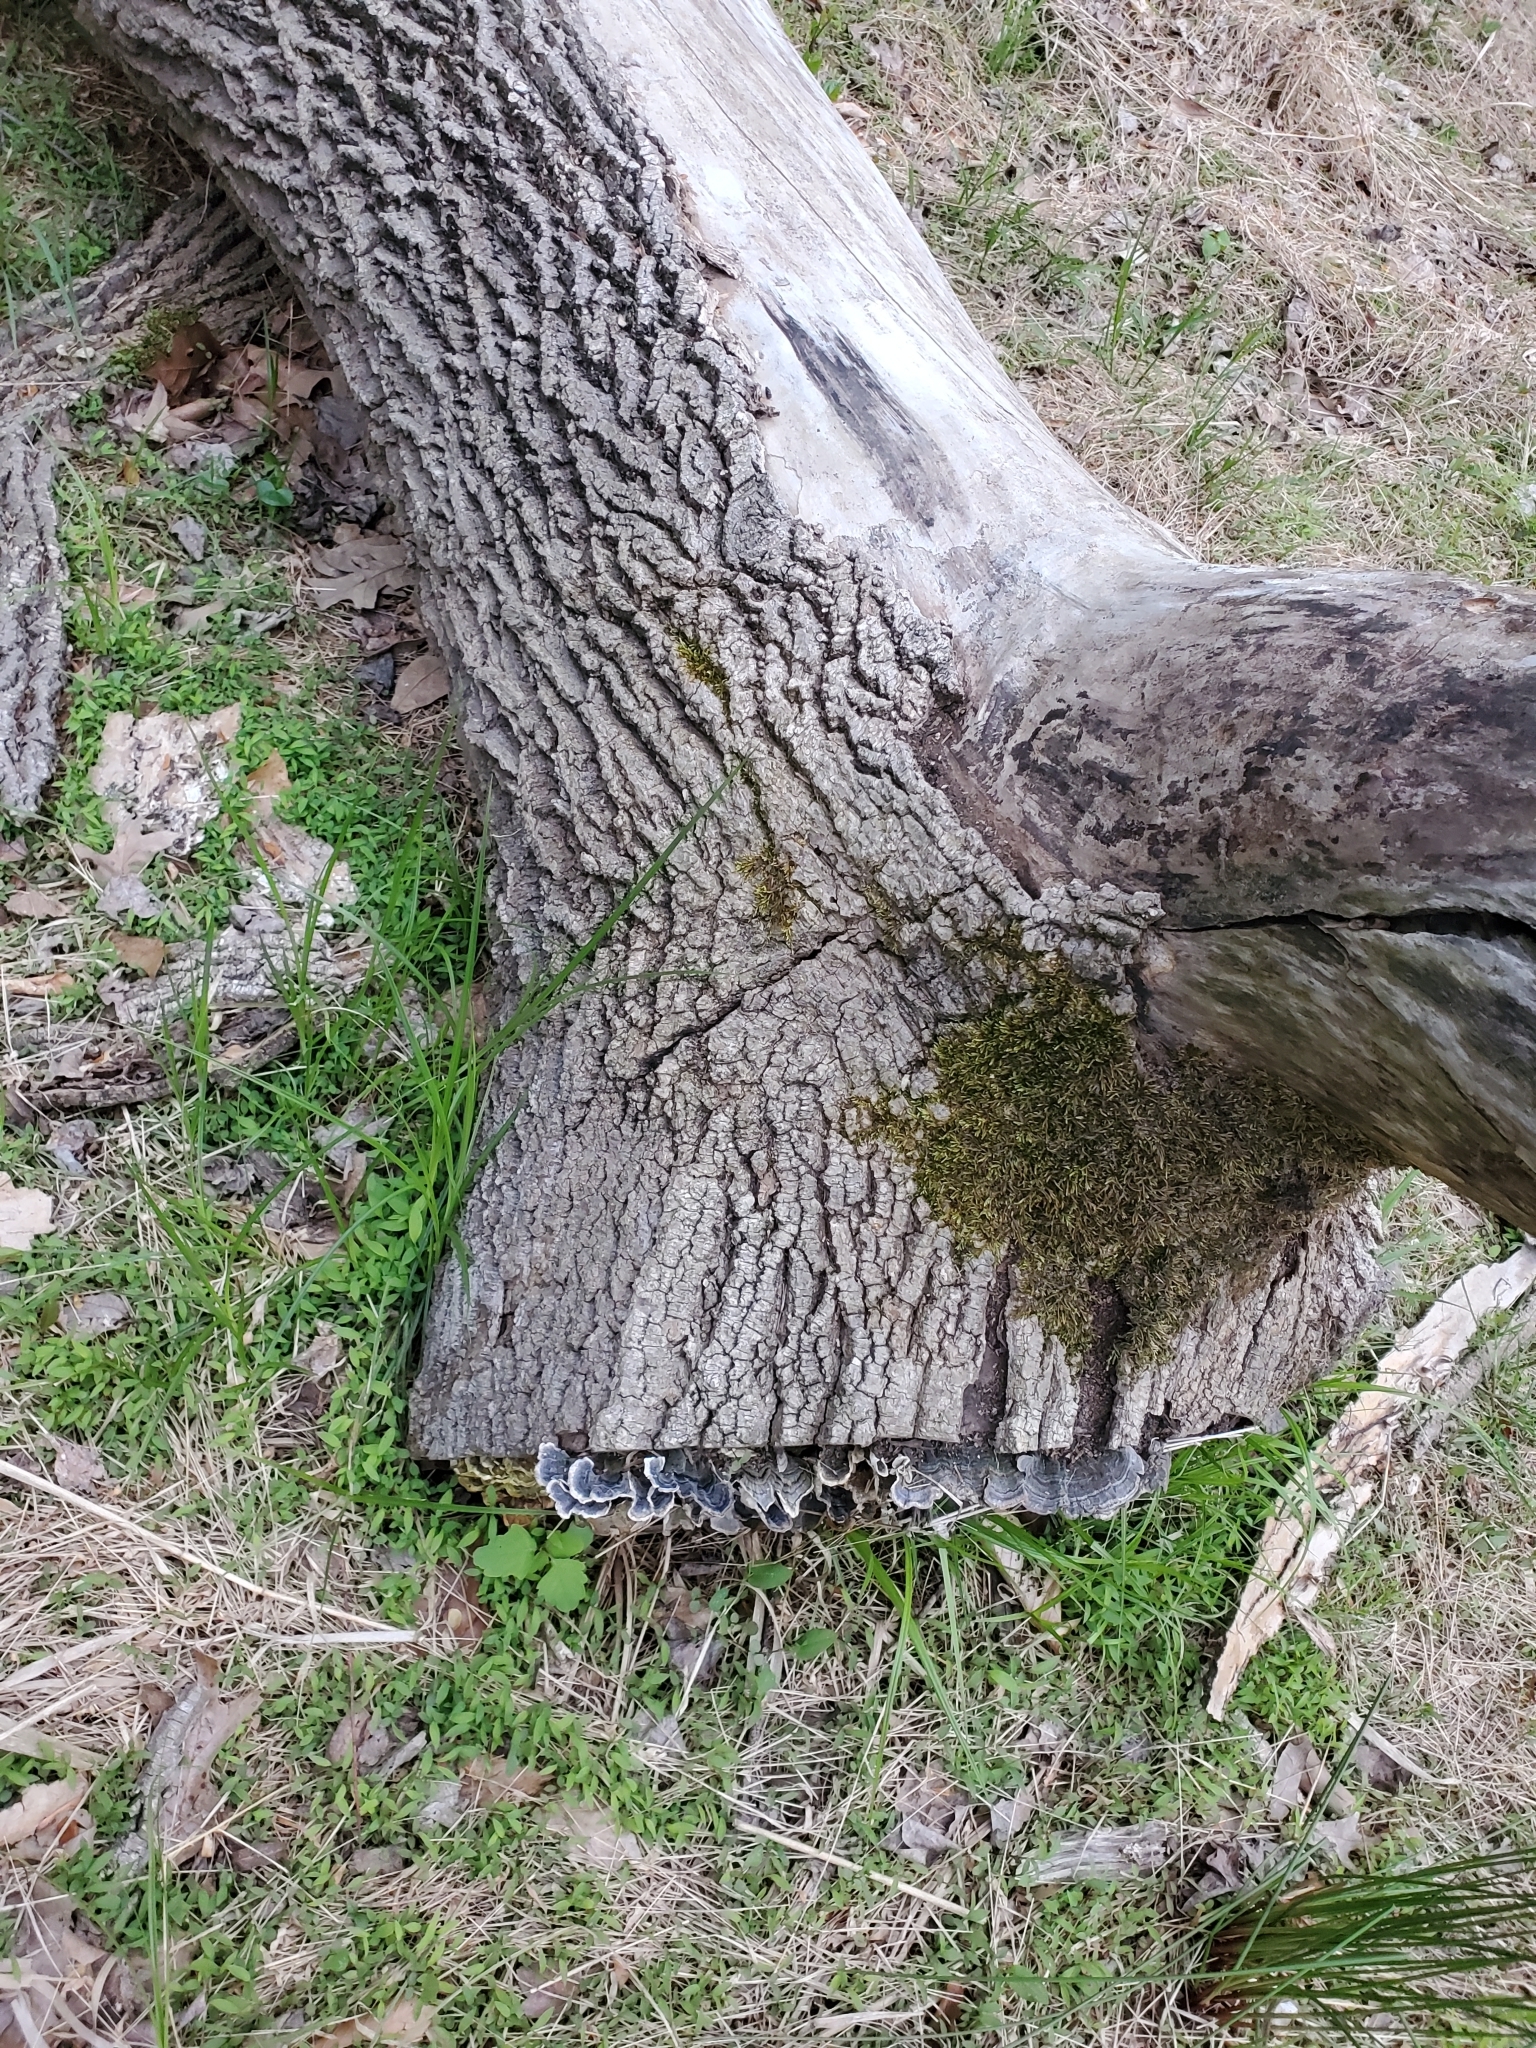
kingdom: Fungi
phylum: Basidiomycota
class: Agaricomycetes
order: Polyporales
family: Polyporaceae
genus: Trametes
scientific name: Trametes versicolor
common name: Turkeytail
